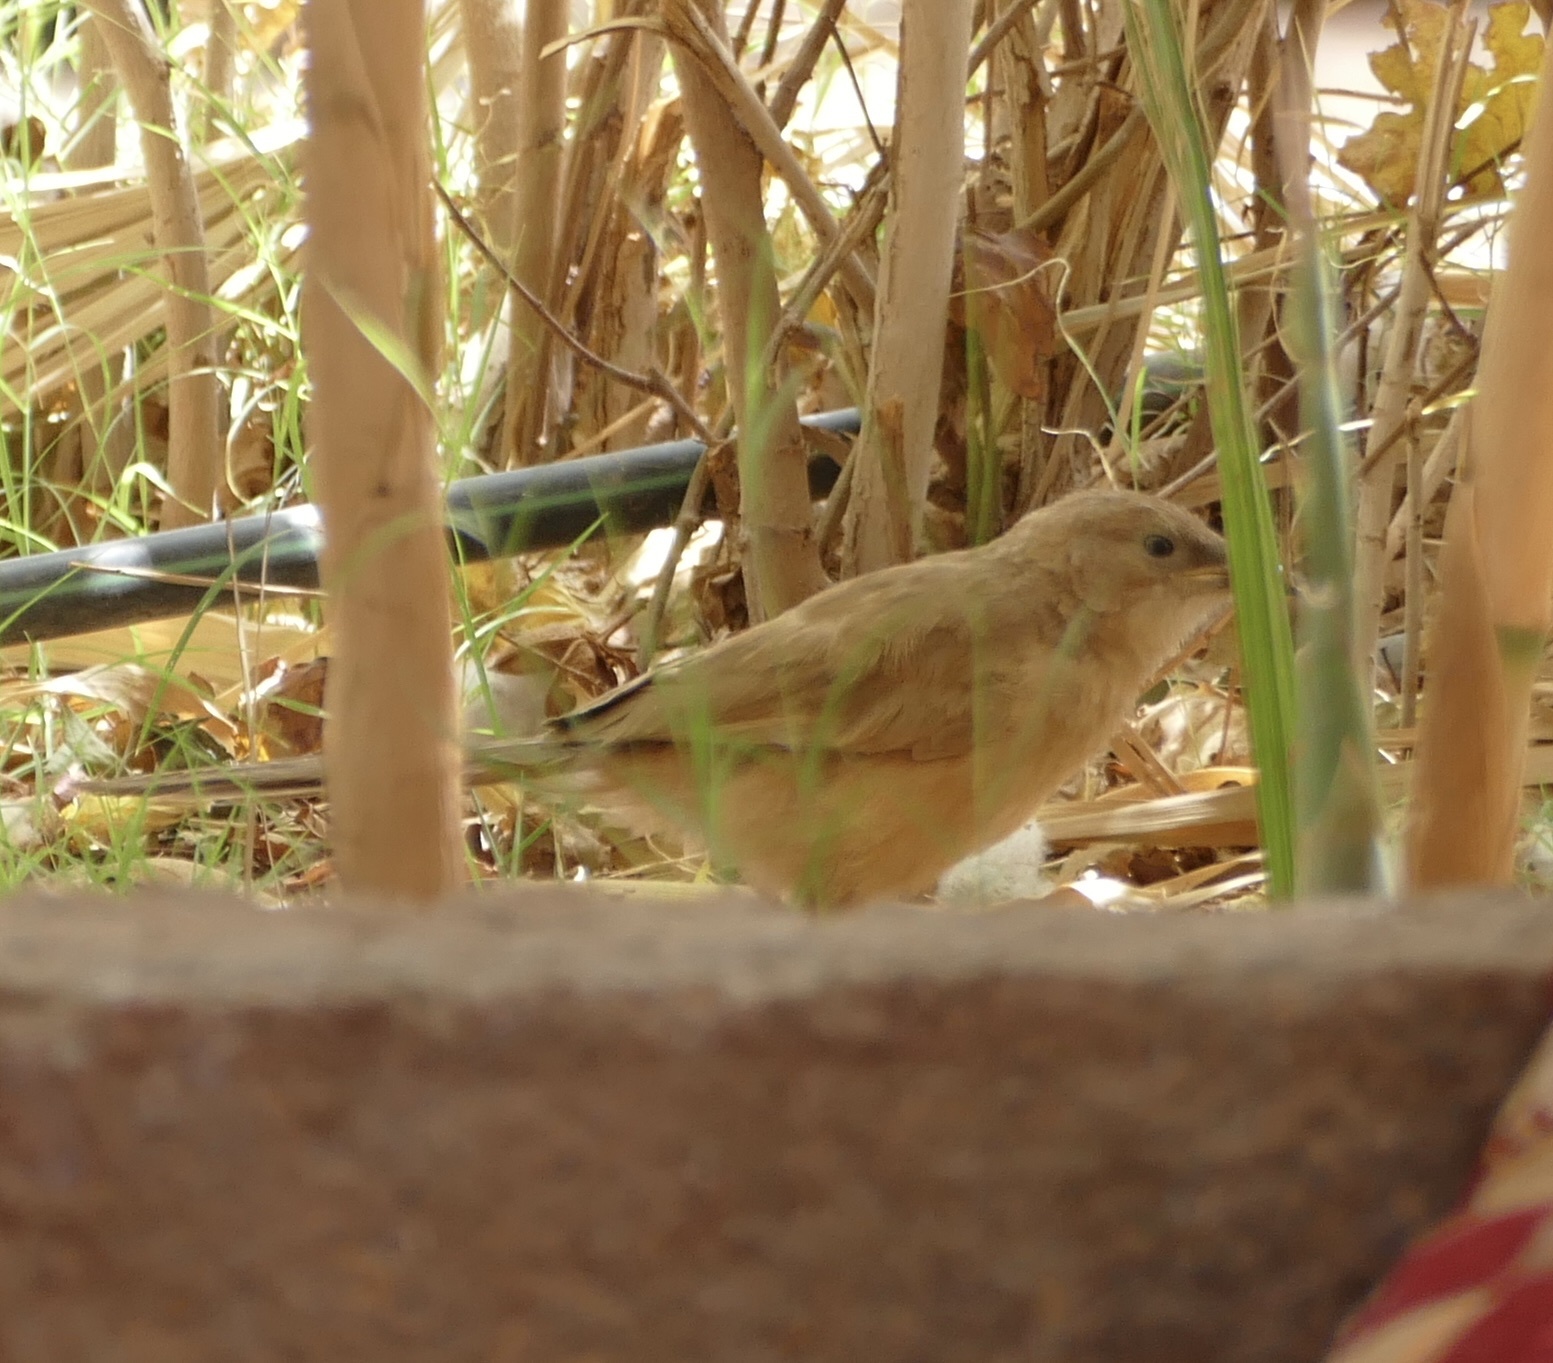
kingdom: Animalia
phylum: Chordata
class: Aves
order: Passeriformes
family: Leiothrichidae
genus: Turdoides
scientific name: Turdoides fulva
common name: Fulvous babbler
